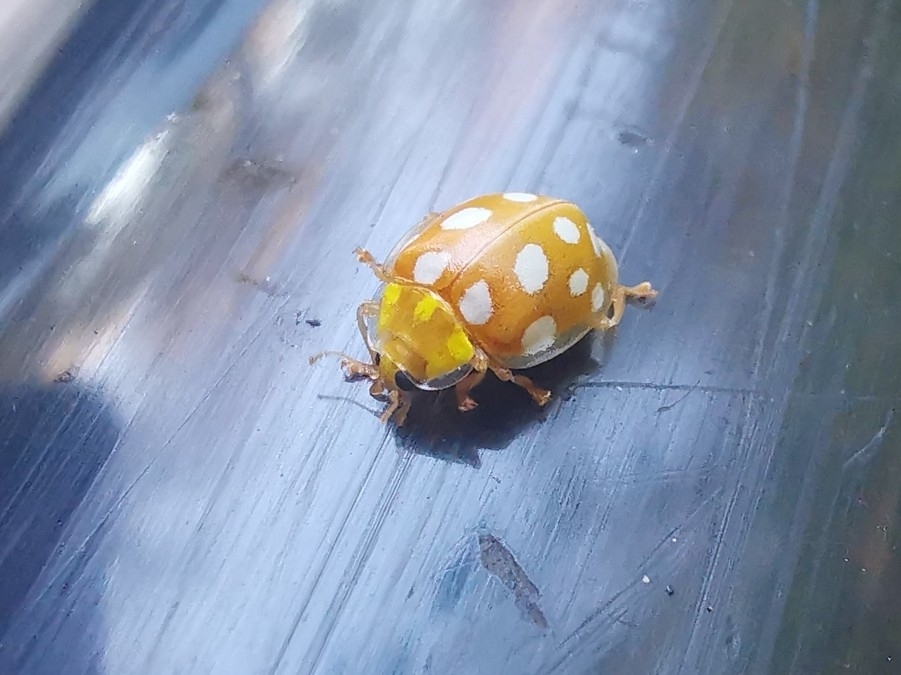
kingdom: Animalia
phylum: Arthropoda
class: Insecta
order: Coleoptera
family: Coccinellidae
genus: Halyzia
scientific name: Halyzia sedecimguttata
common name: Orange ladybird
